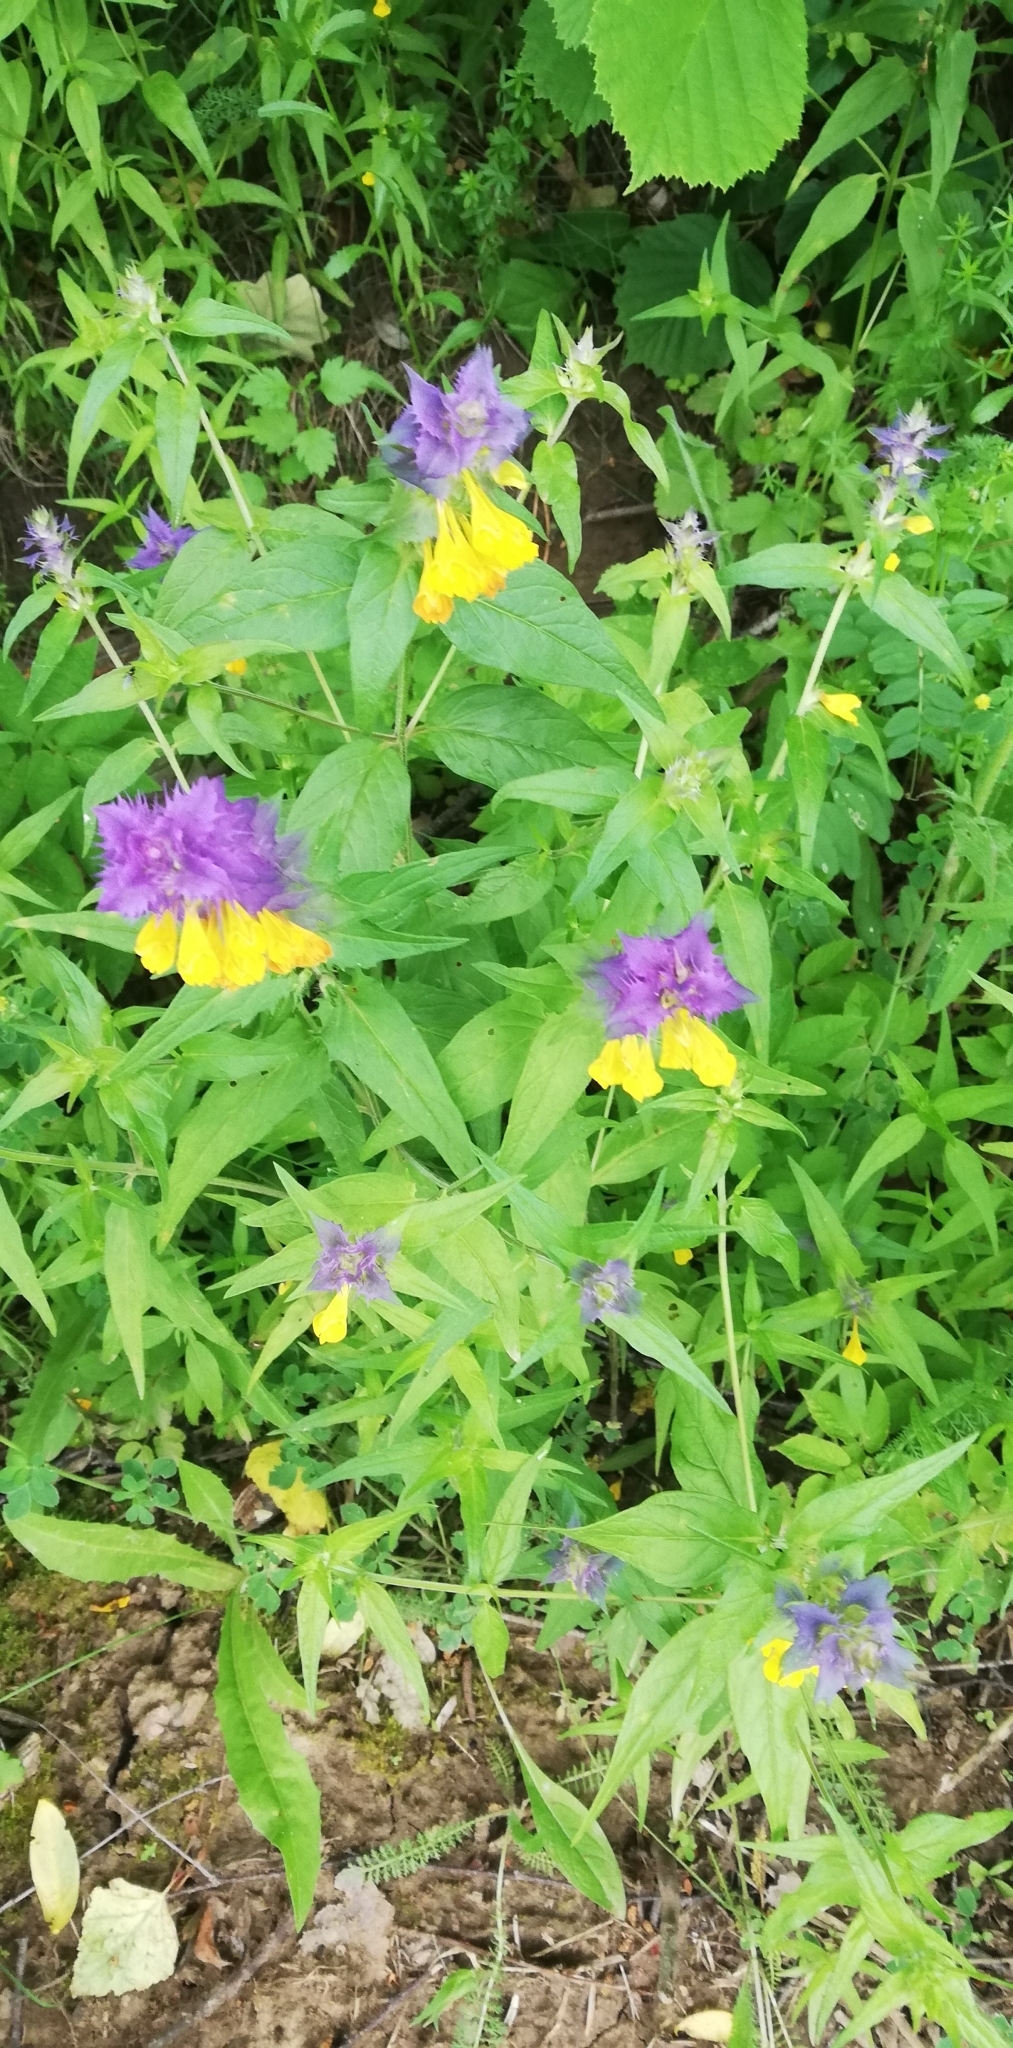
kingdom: Plantae
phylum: Tracheophyta
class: Magnoliopsida
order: Lamiales
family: Orobanchaceae
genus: Melampyrum
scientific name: Melampyrum nemorosum
